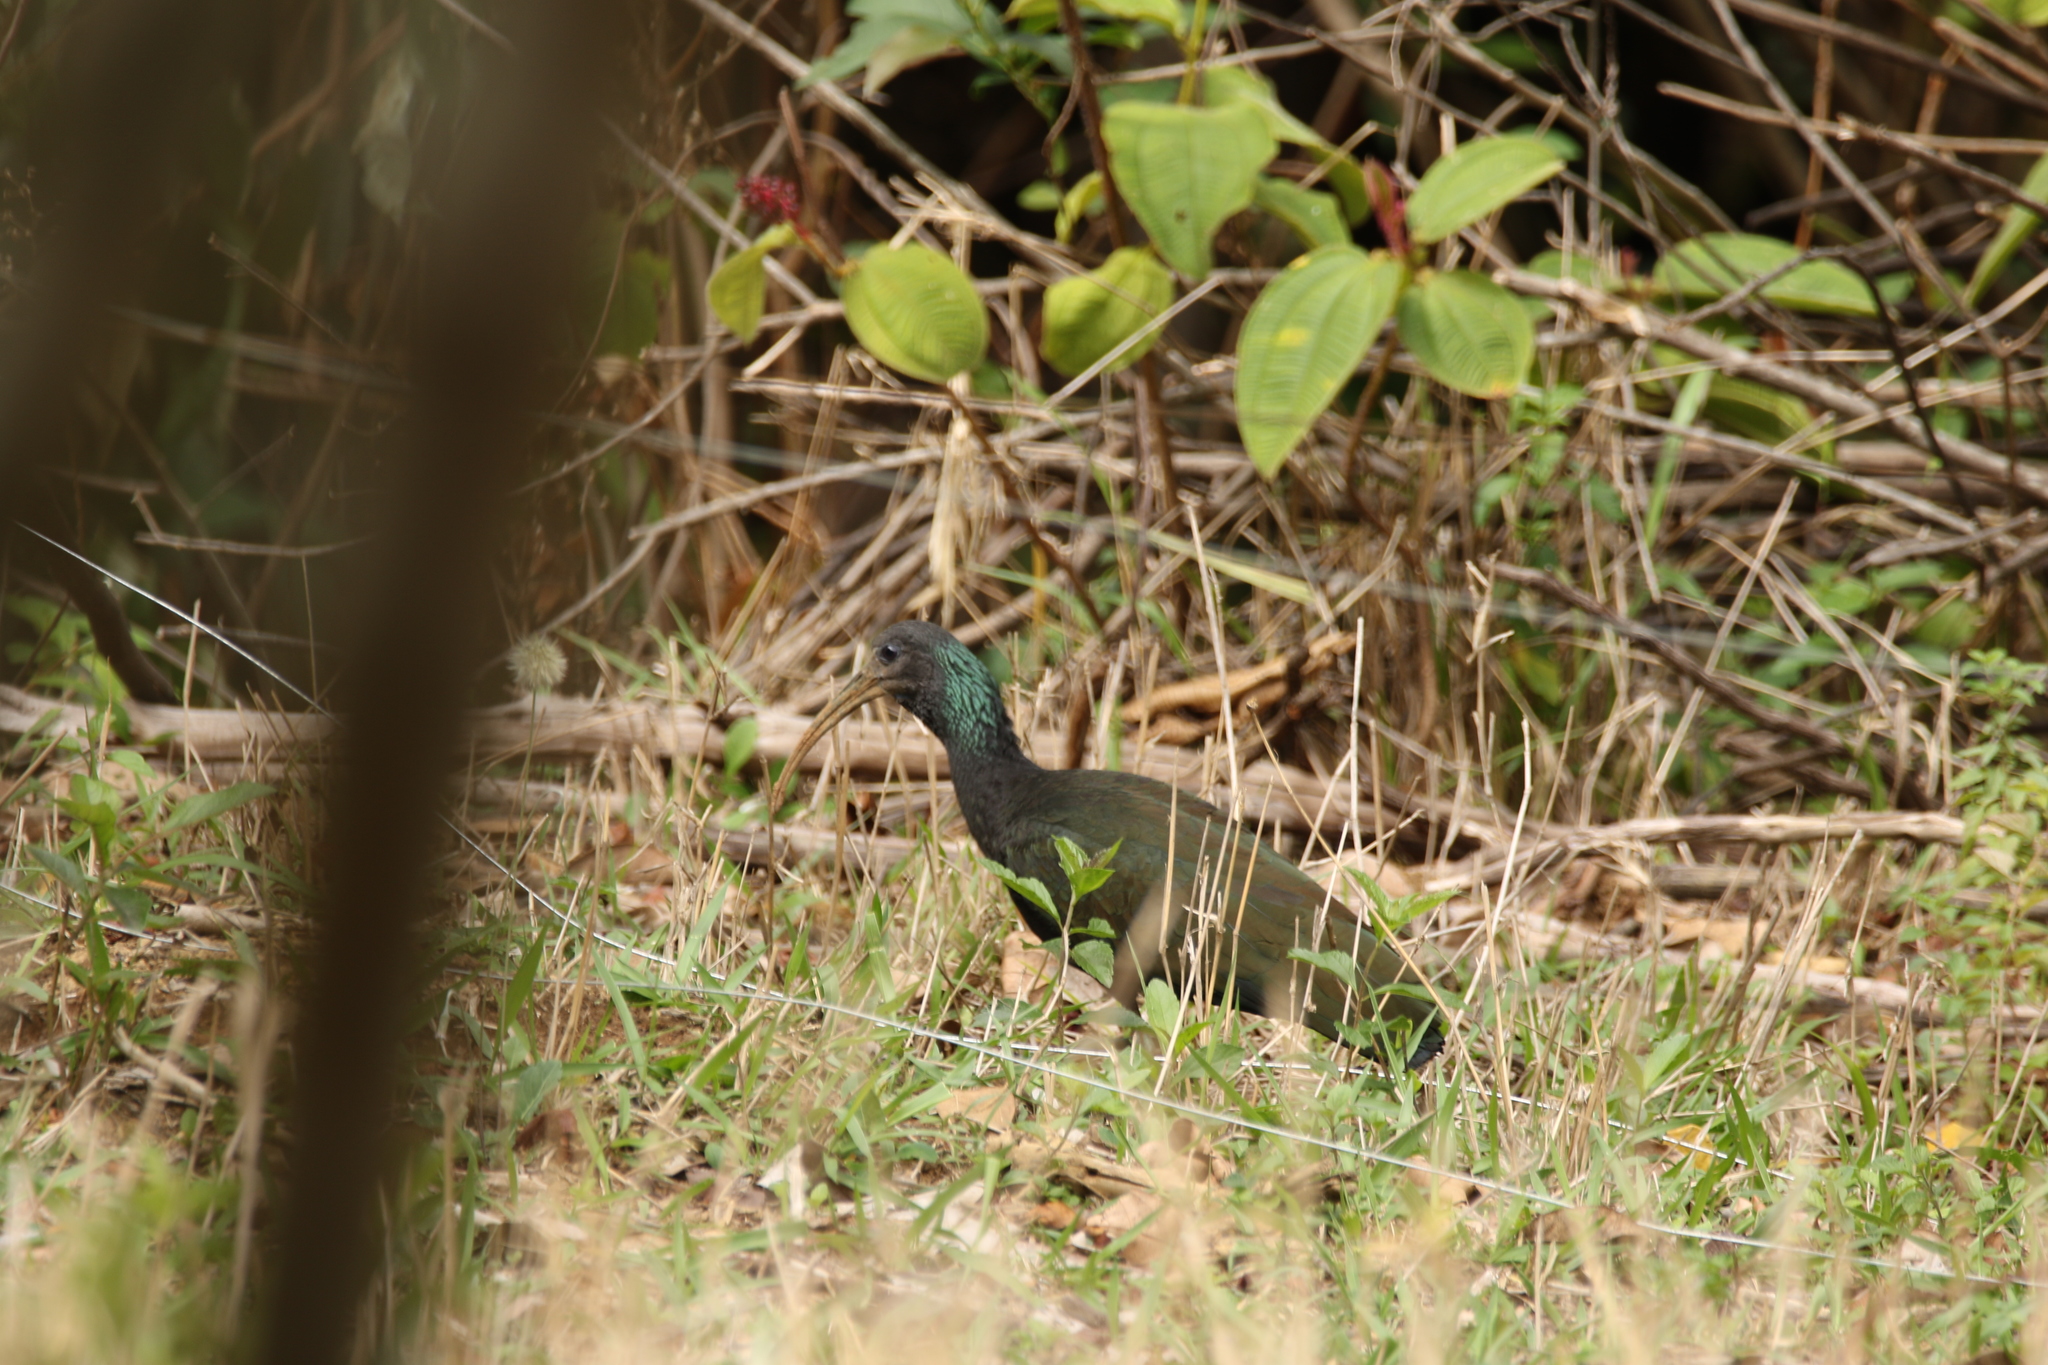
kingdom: Animalia
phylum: Chordata
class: Aves
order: Pelecaniformes
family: Threskiornithidae
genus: Mesembrinibis
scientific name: Mesembrinibis cayennensis
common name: Green ibis
